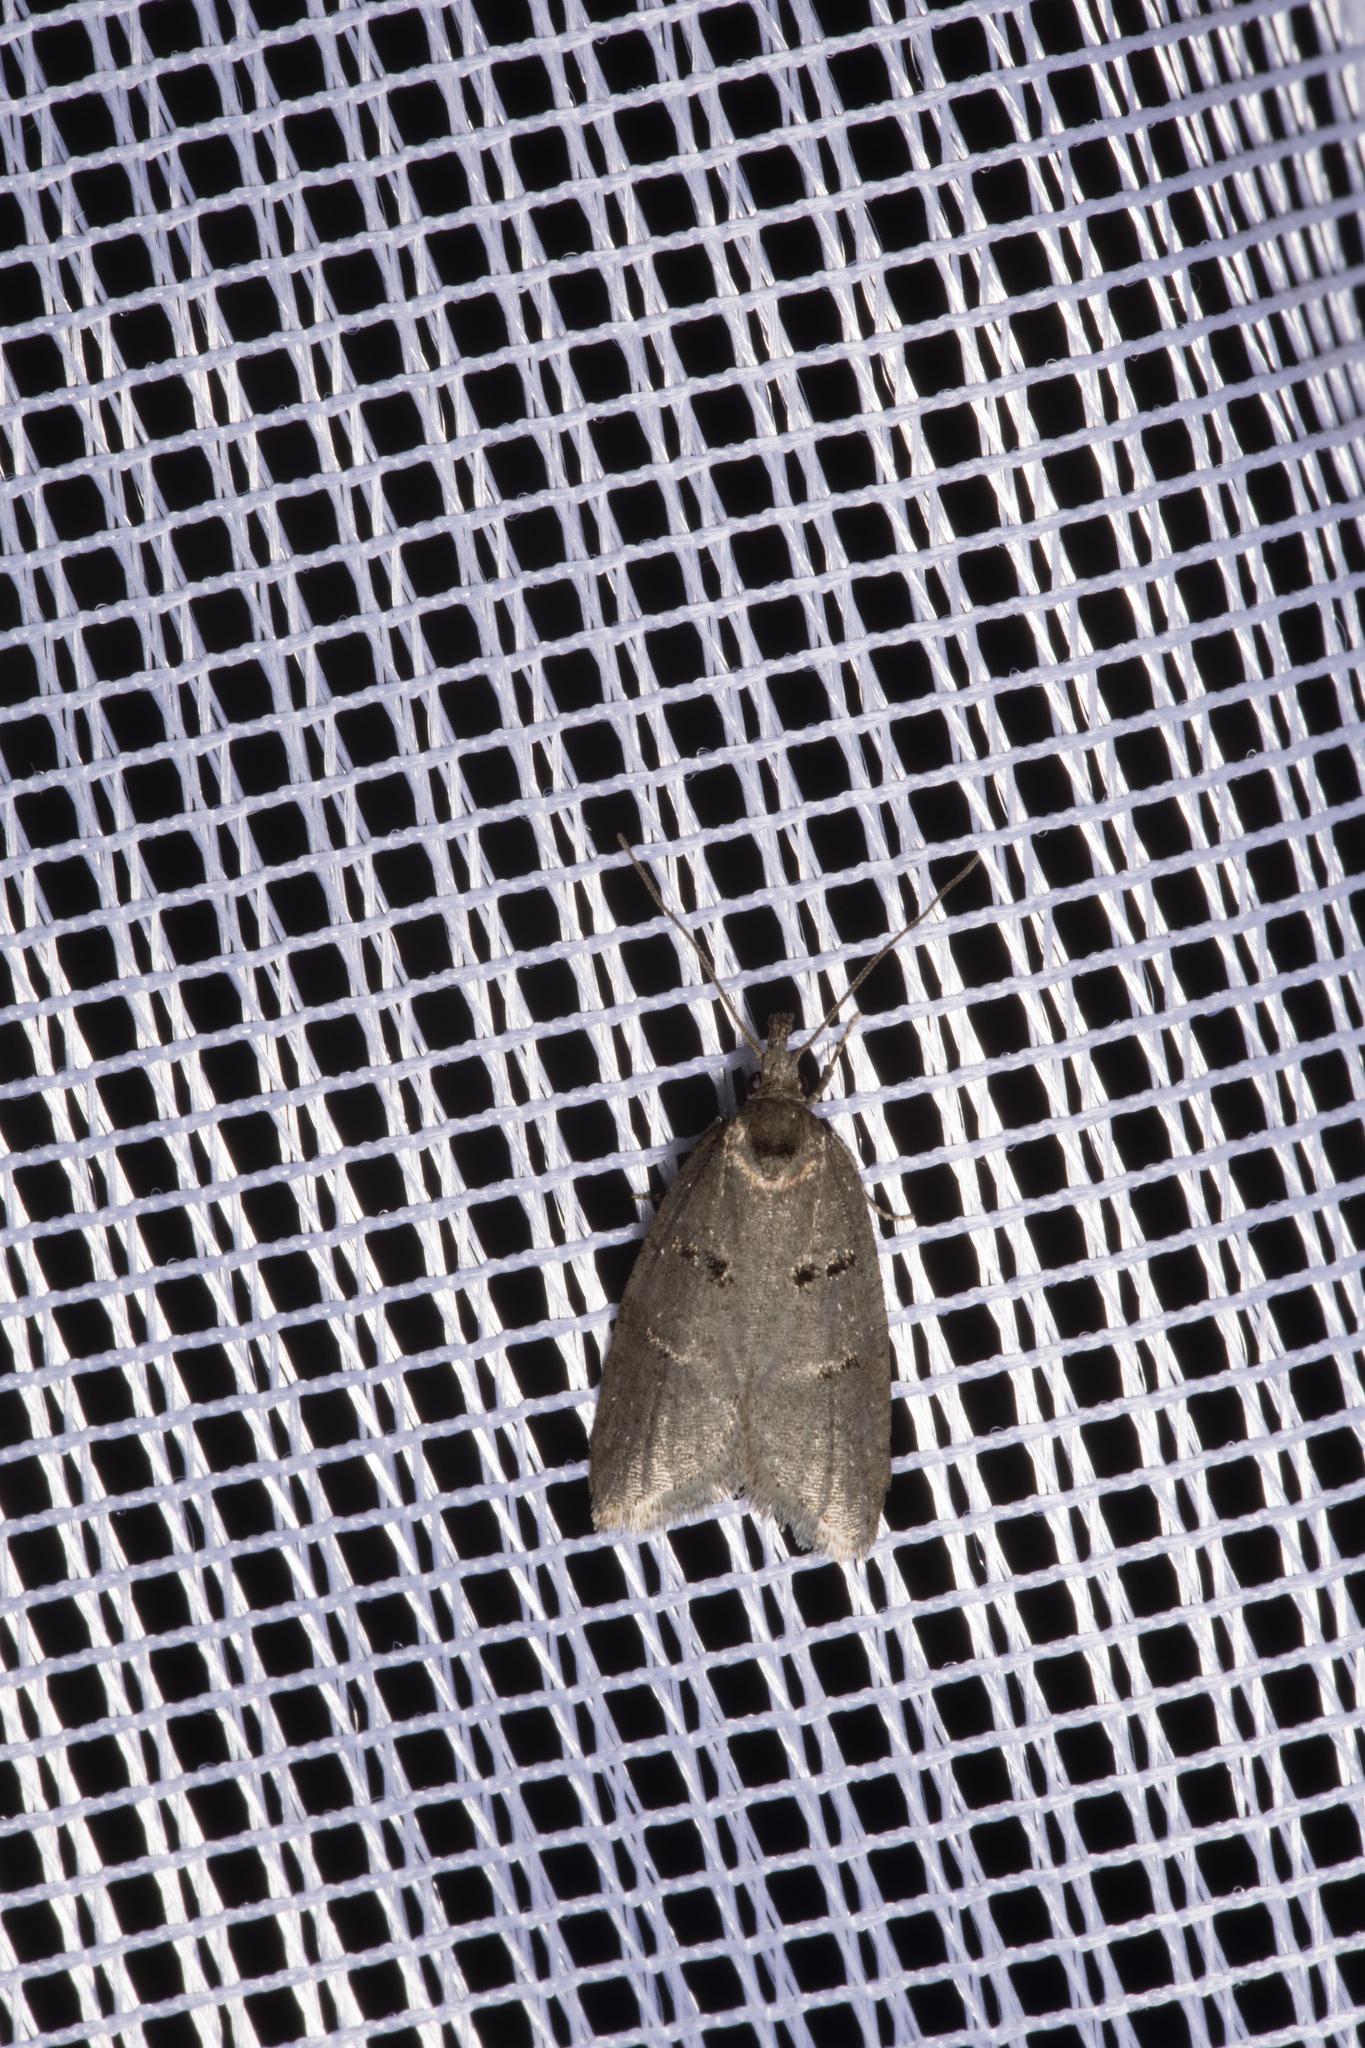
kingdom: Animalia
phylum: Arthropoda
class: Insecta
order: Lepidoptera
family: Oecophoridae
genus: Luquetia
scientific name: Luquetia lobella
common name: Sloe flat-body
